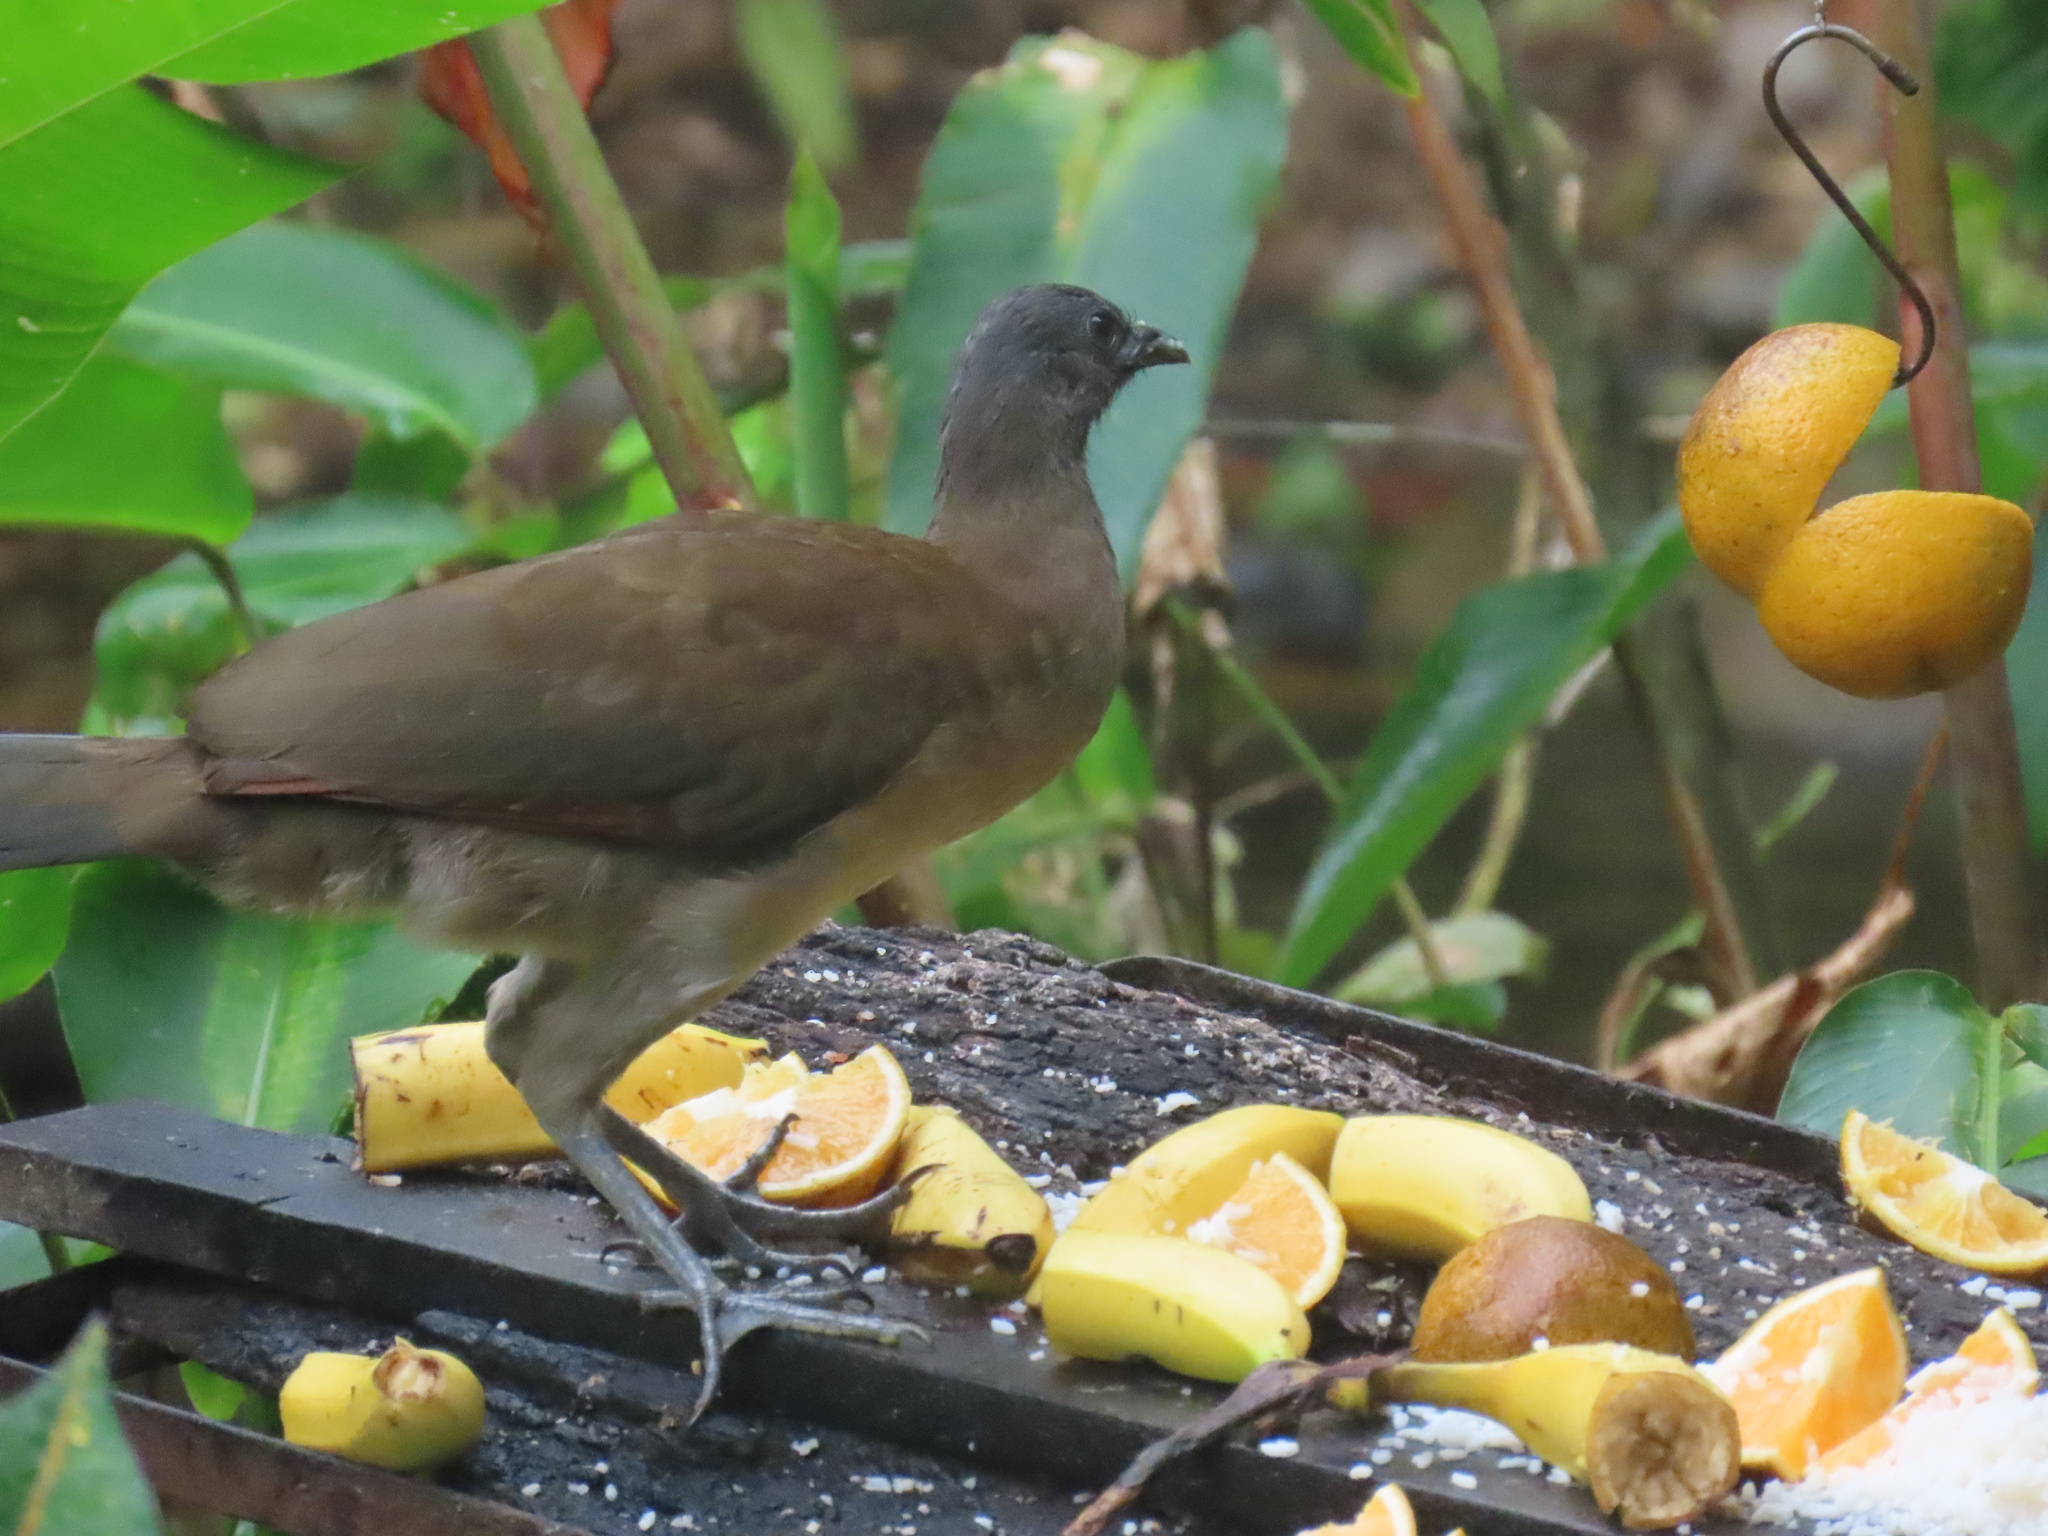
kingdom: Animalia
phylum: Chordata
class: Aves
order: Galliformes
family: Cracidae
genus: Ortalis
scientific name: Ortalis cinereiceps
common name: Grey-headed chachalaca
